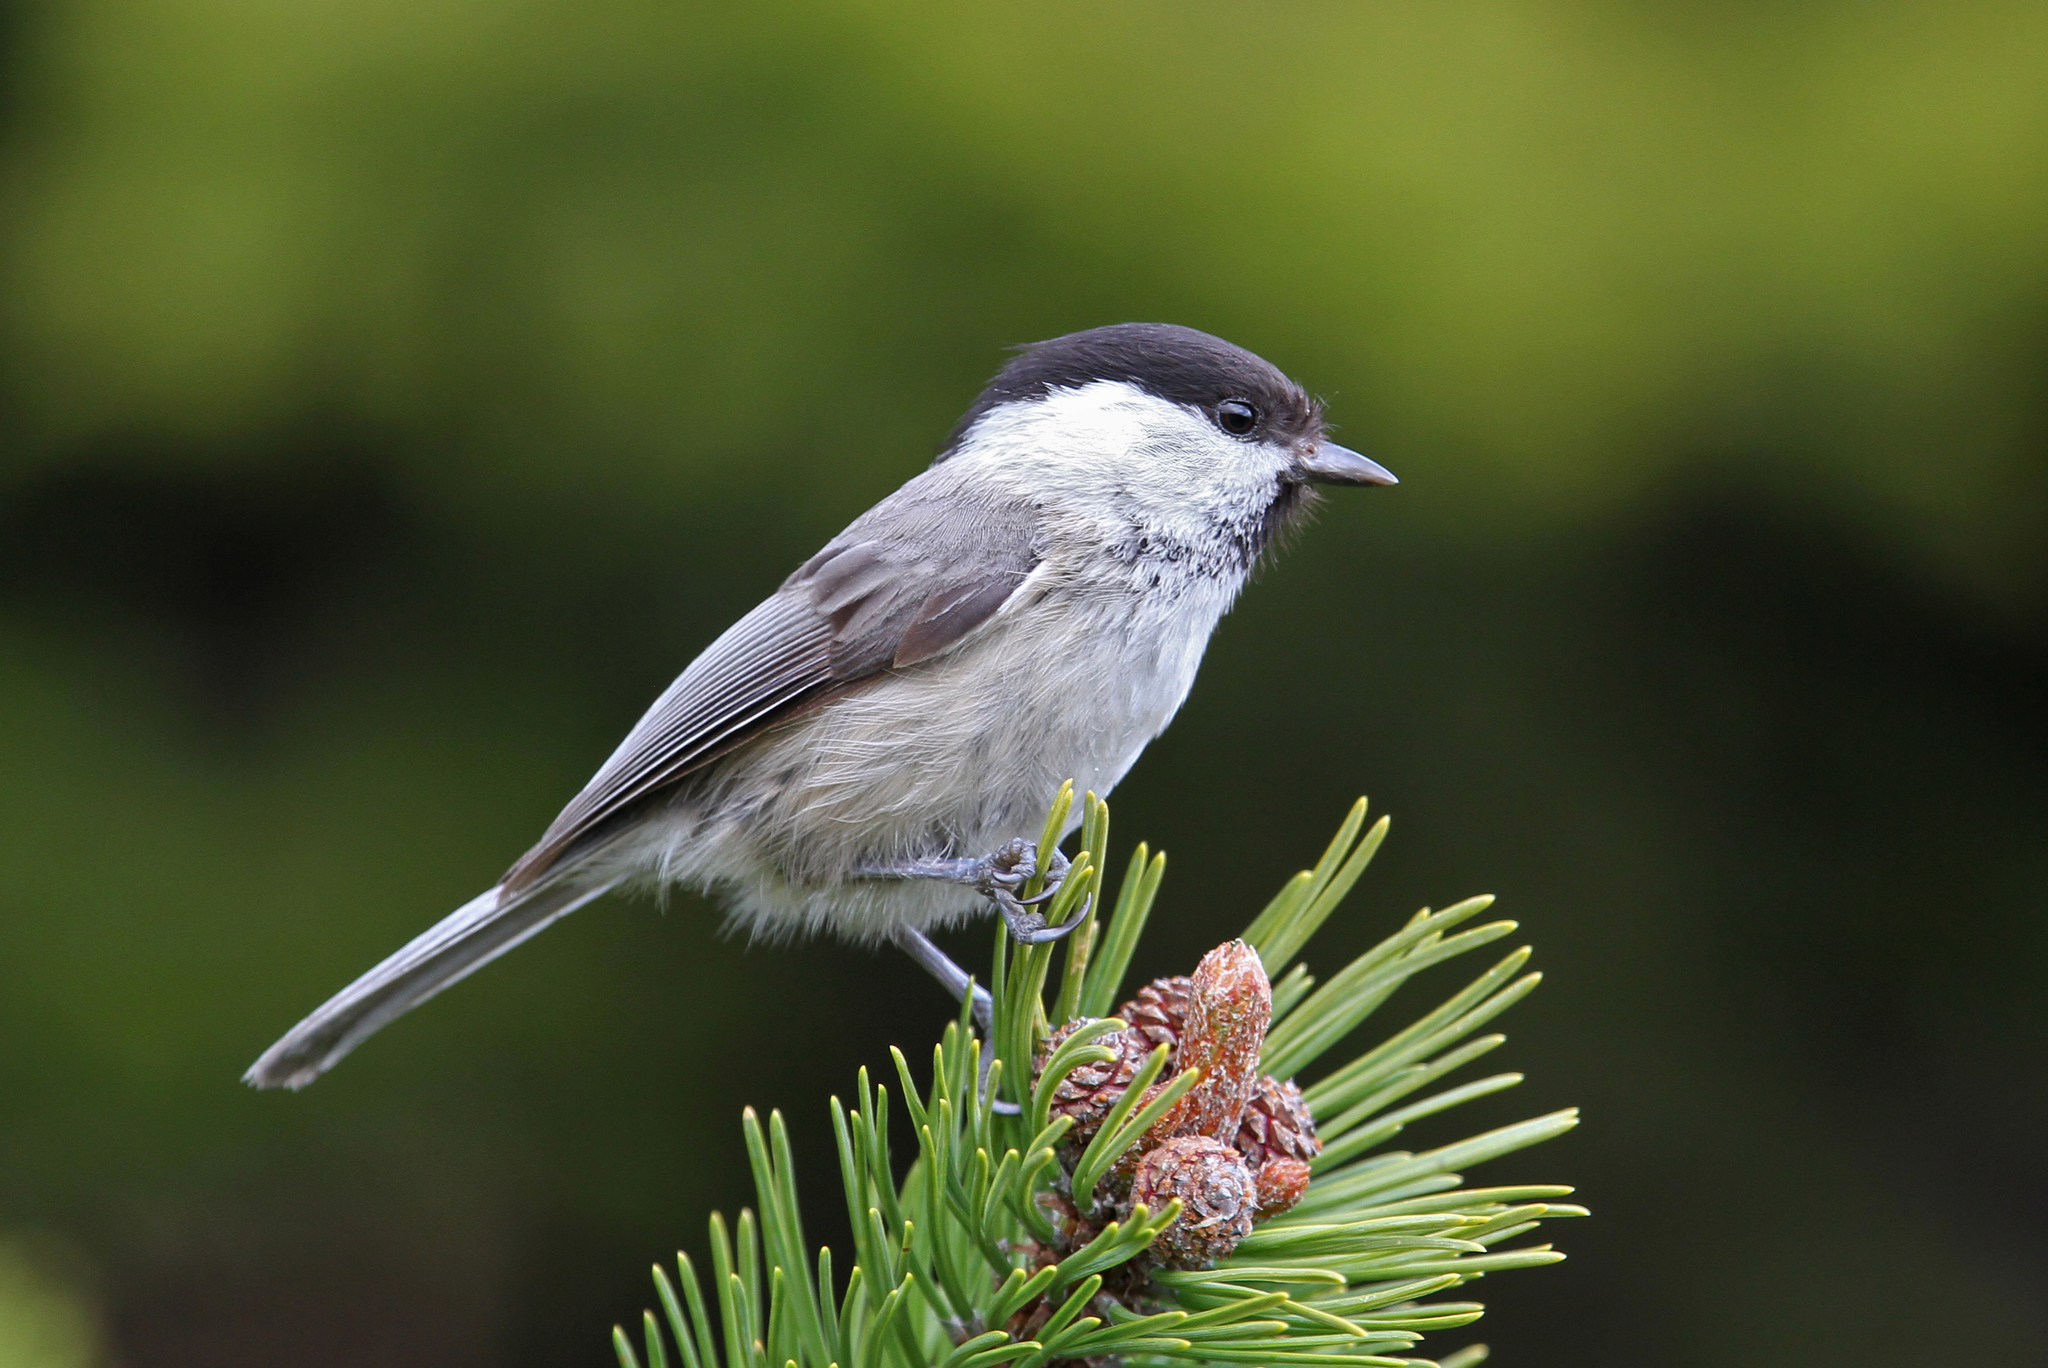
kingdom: Animalia
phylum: Chordata
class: Aves
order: Passeriformes
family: Paridae
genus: Poecile
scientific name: Poecile montanus
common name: Willow tit
